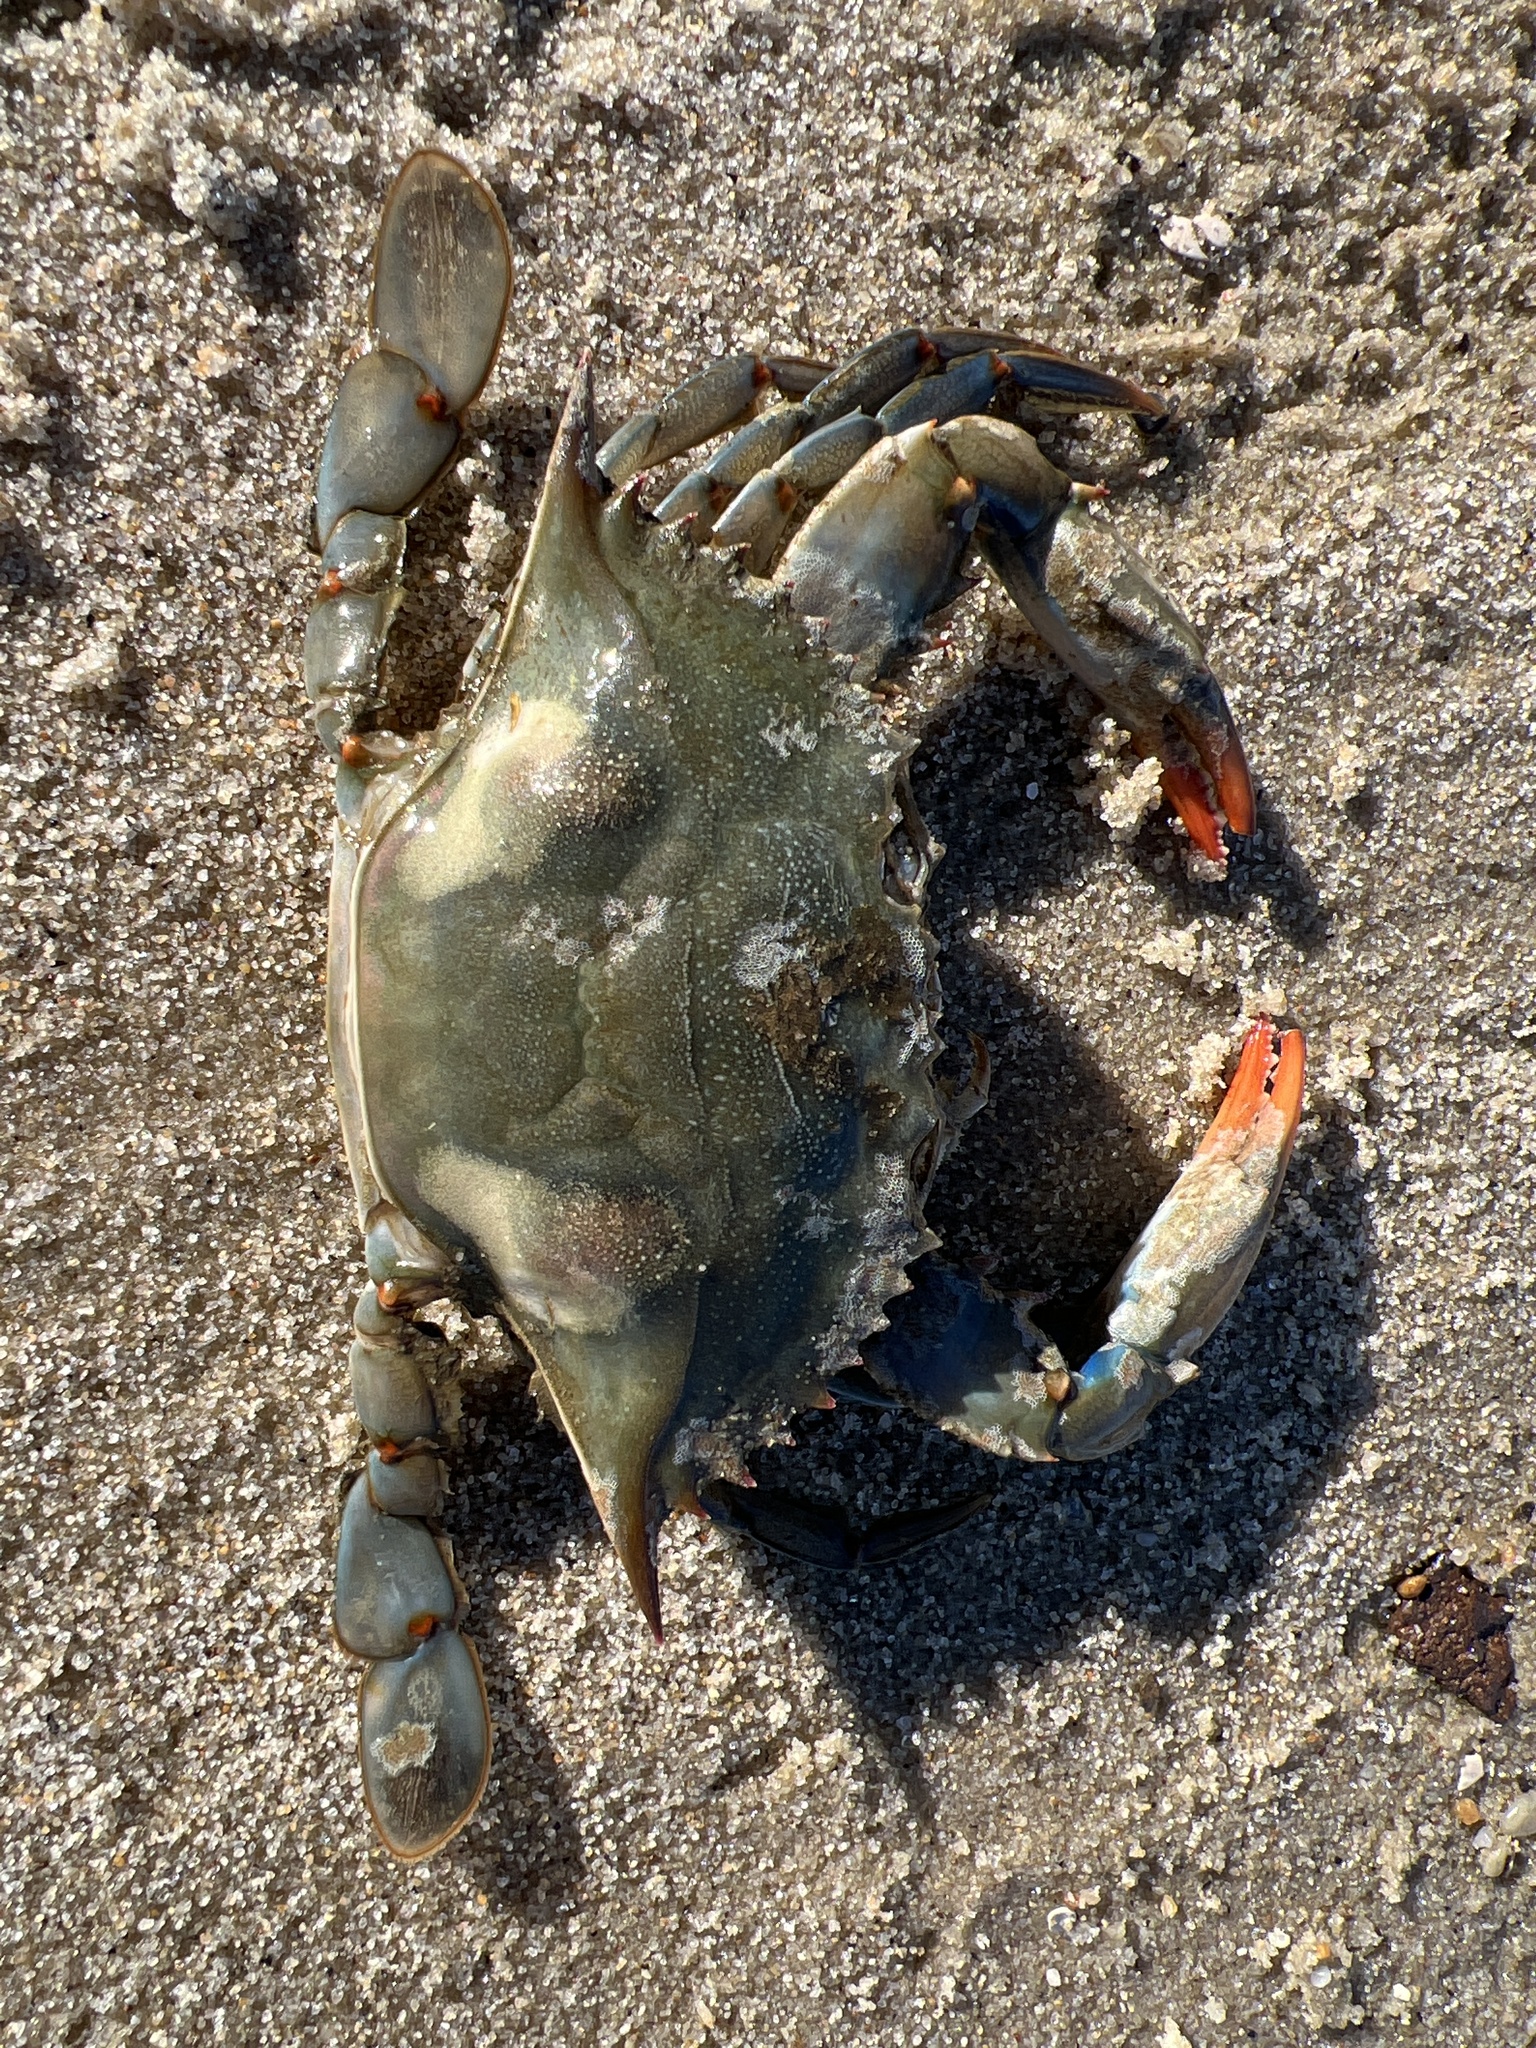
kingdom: Animalia
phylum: Arthropoda
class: Malacostraca
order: Decapoda
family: Portunidae
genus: Callinectes
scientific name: Callinectes sapidus
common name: Blue crab
